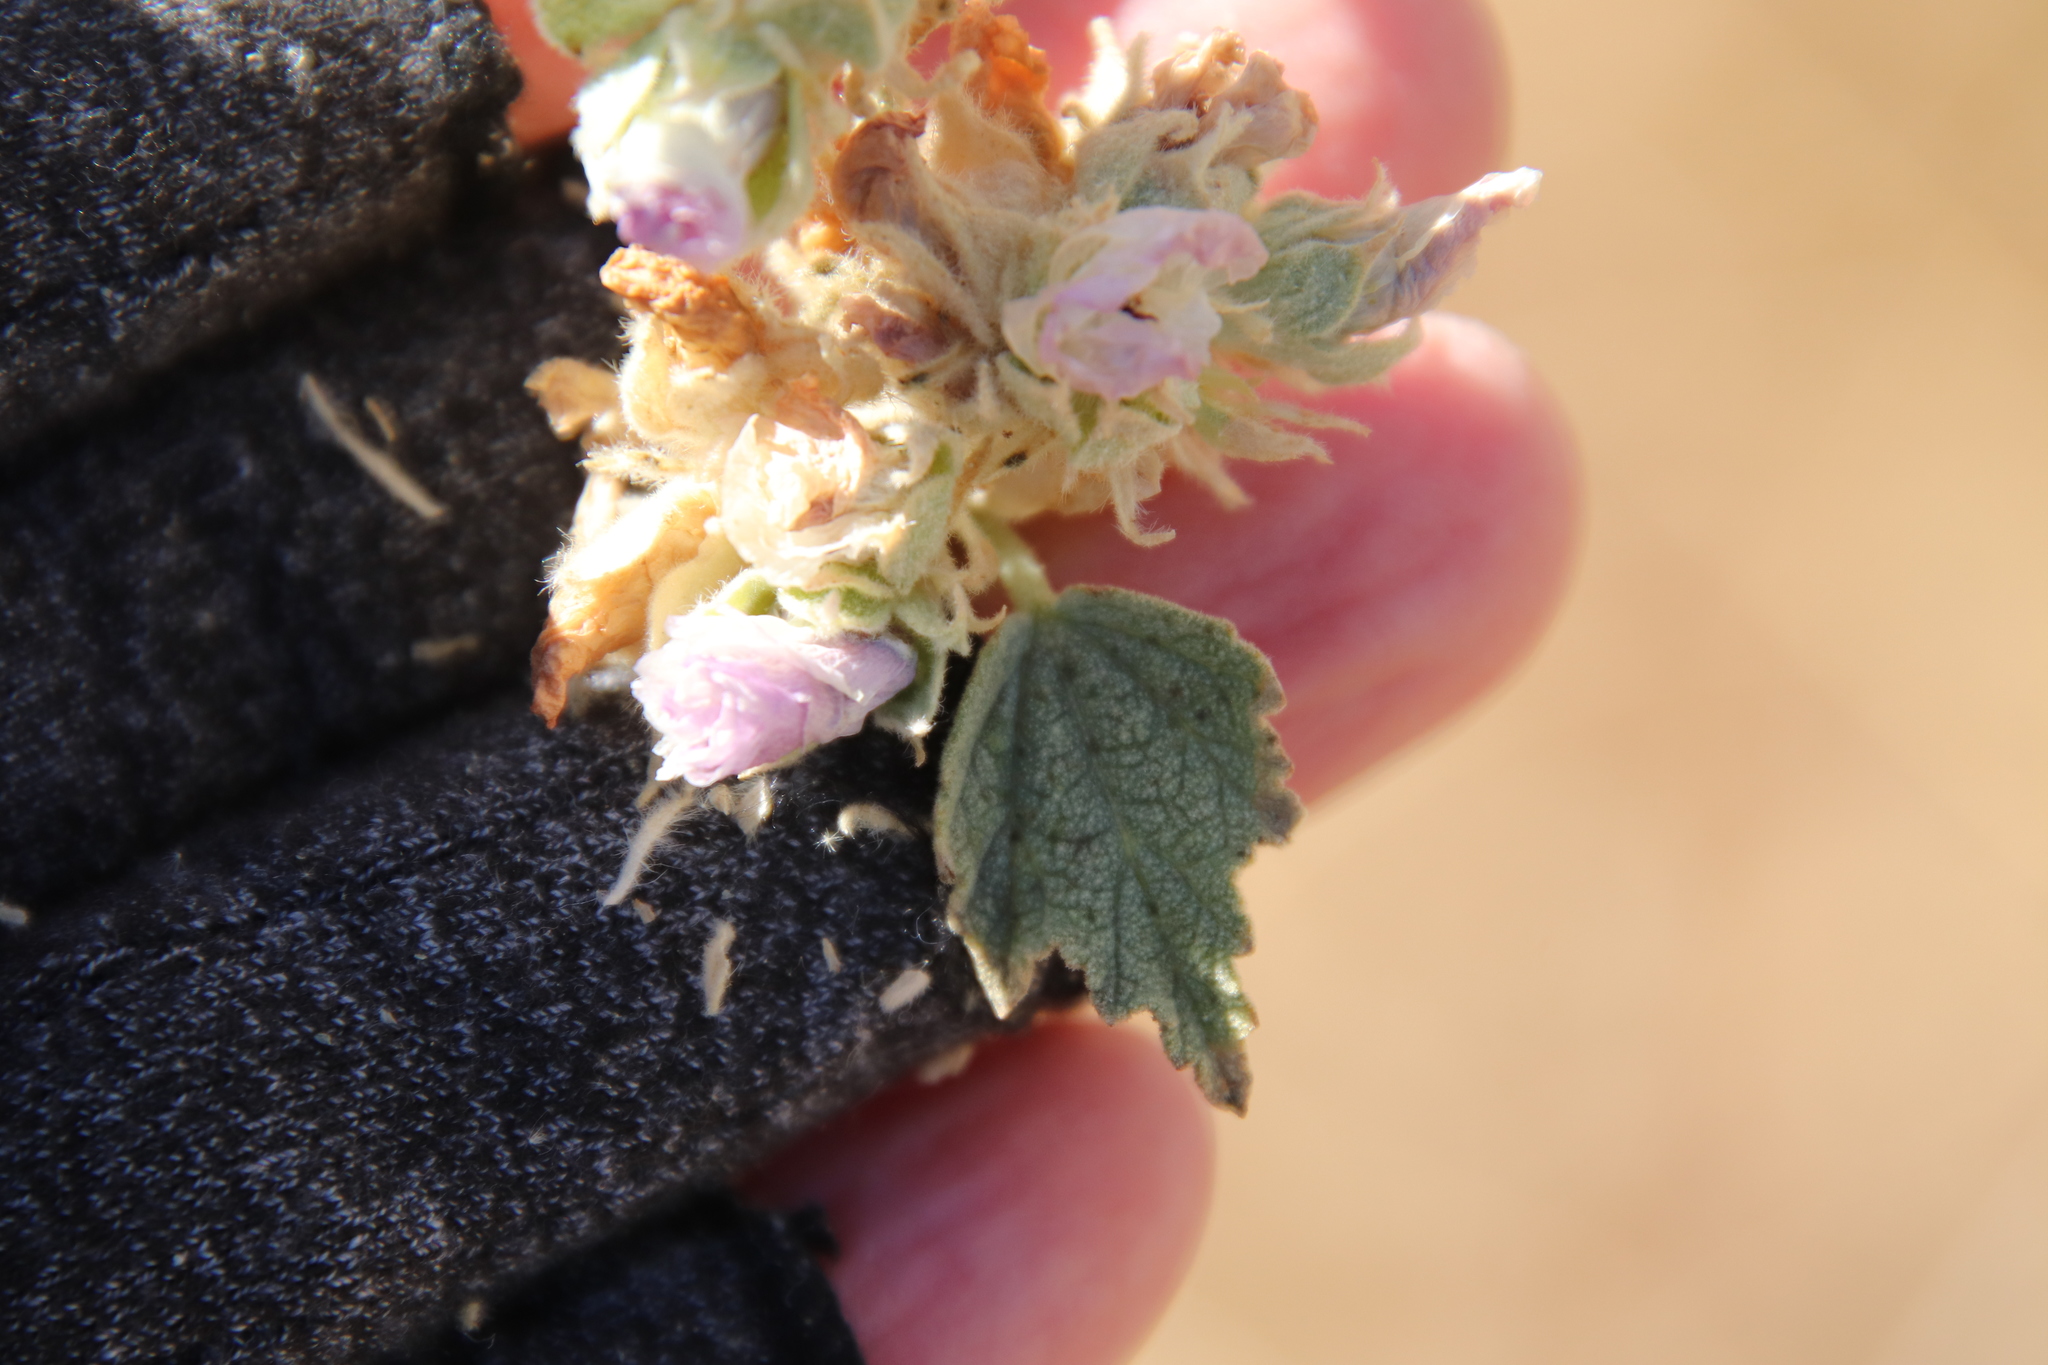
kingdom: Plantae
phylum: Tracheophyta
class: Magnoliopsida
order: Malvales
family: Malvaceae
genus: Malacothamnus
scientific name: Malacothamnus enigmaticus
